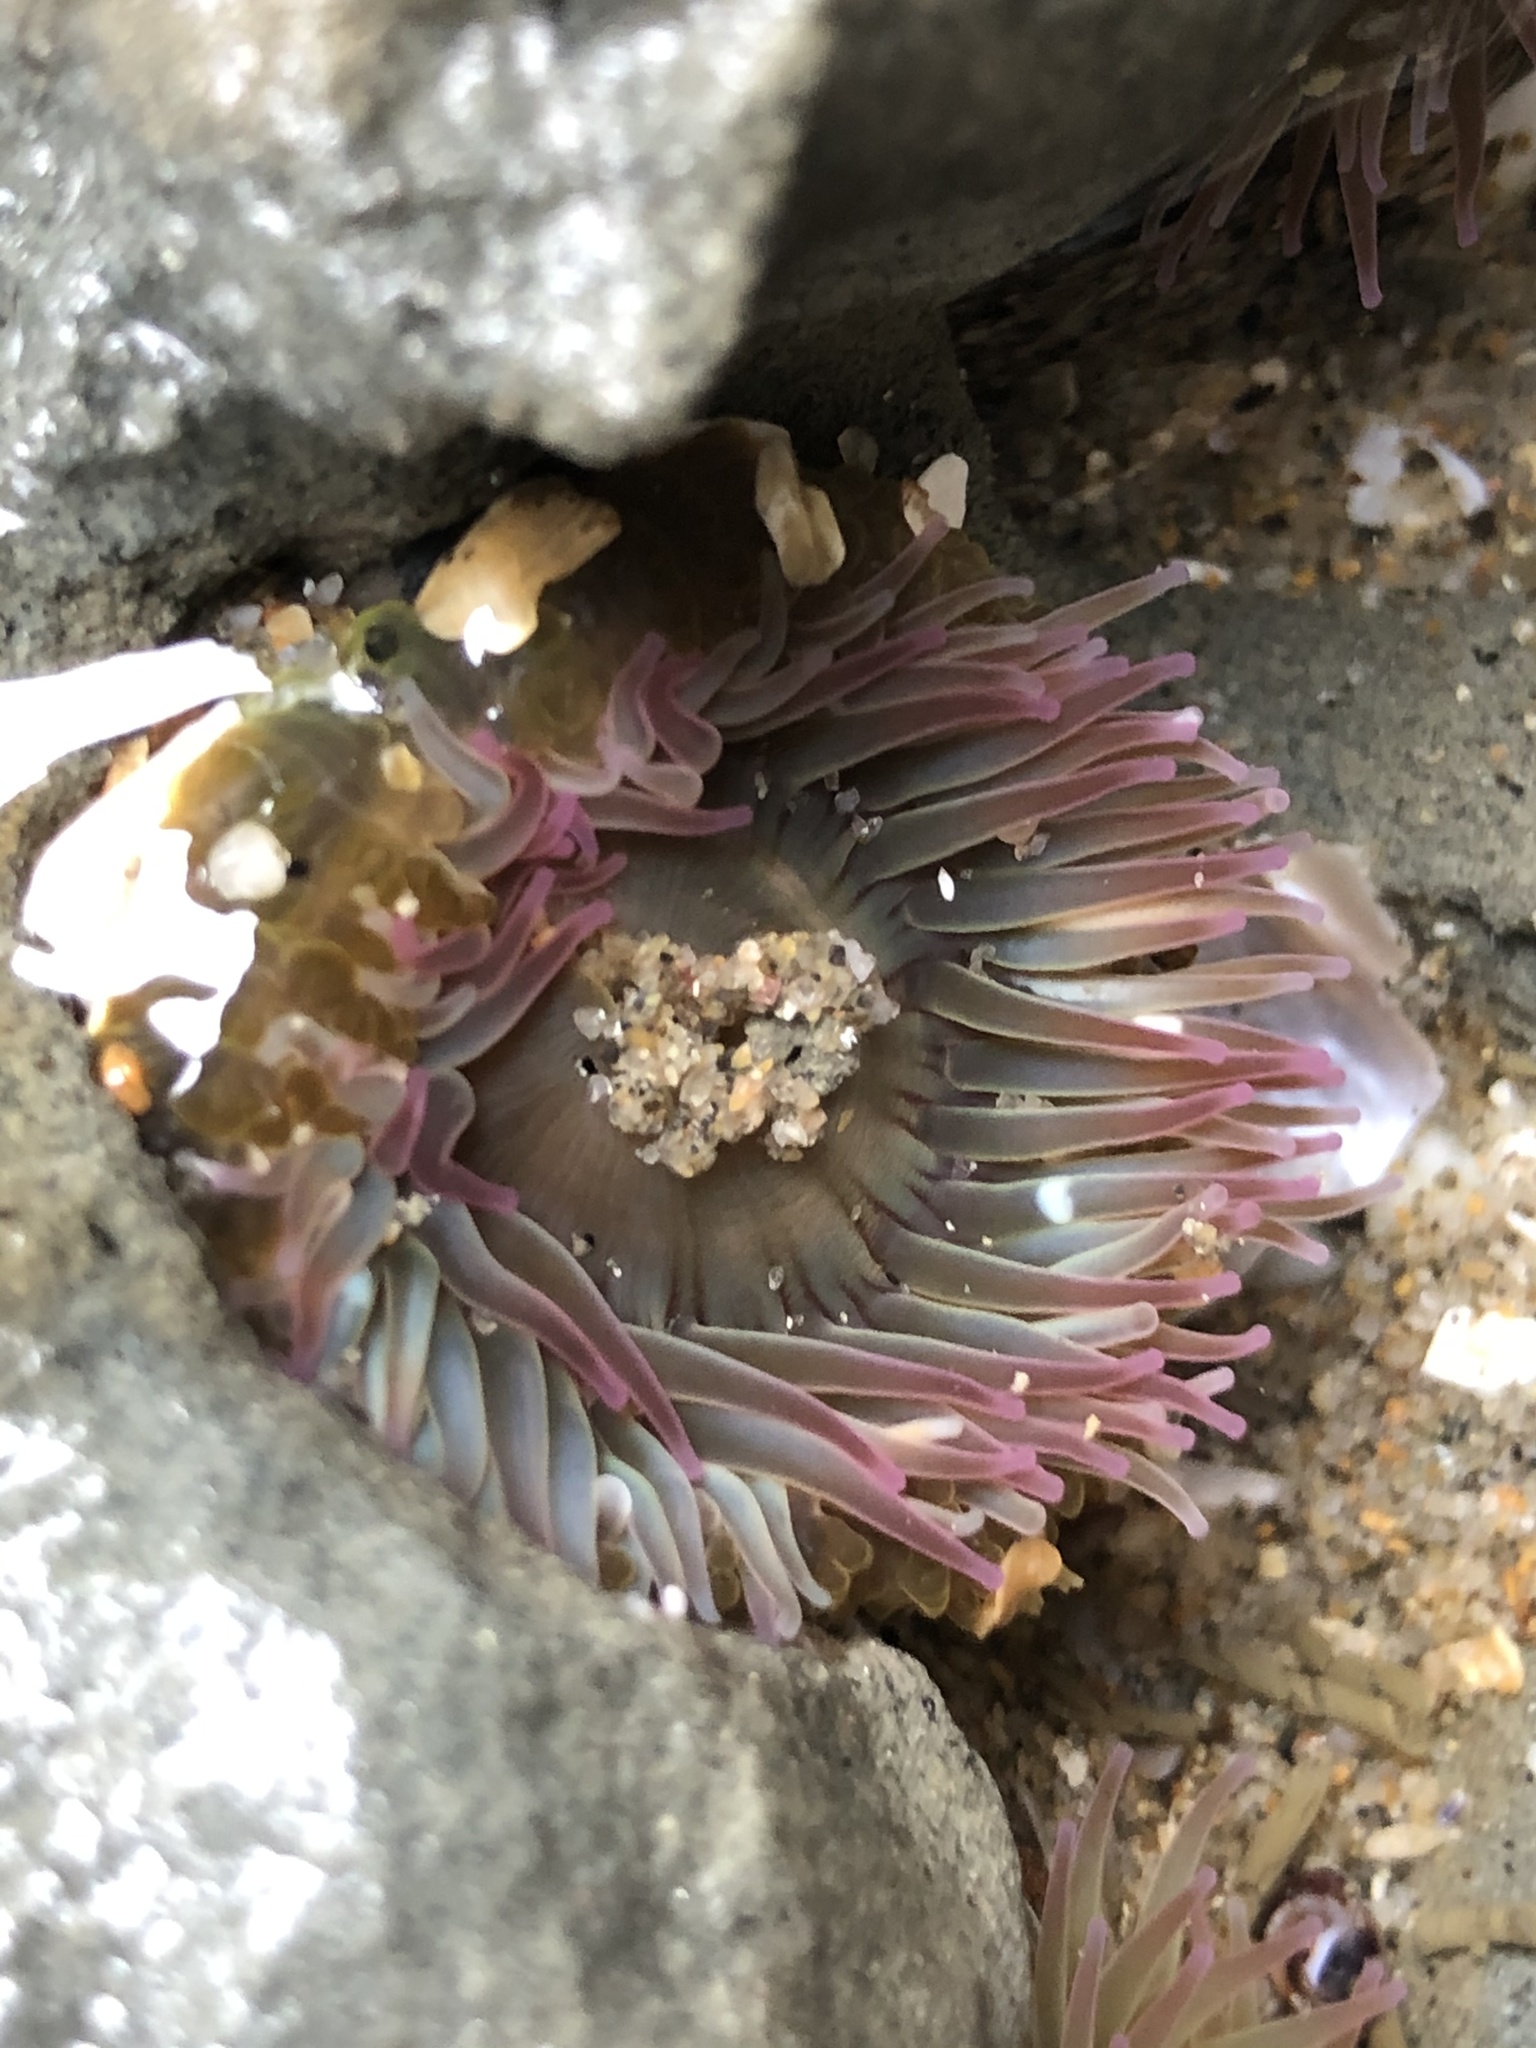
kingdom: Animalia
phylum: Cnidaria
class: Anthozoa
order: Actiniaria
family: Actiniidae
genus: Anthopleura
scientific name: Anthopleura elegantissima
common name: Clonal anemone
